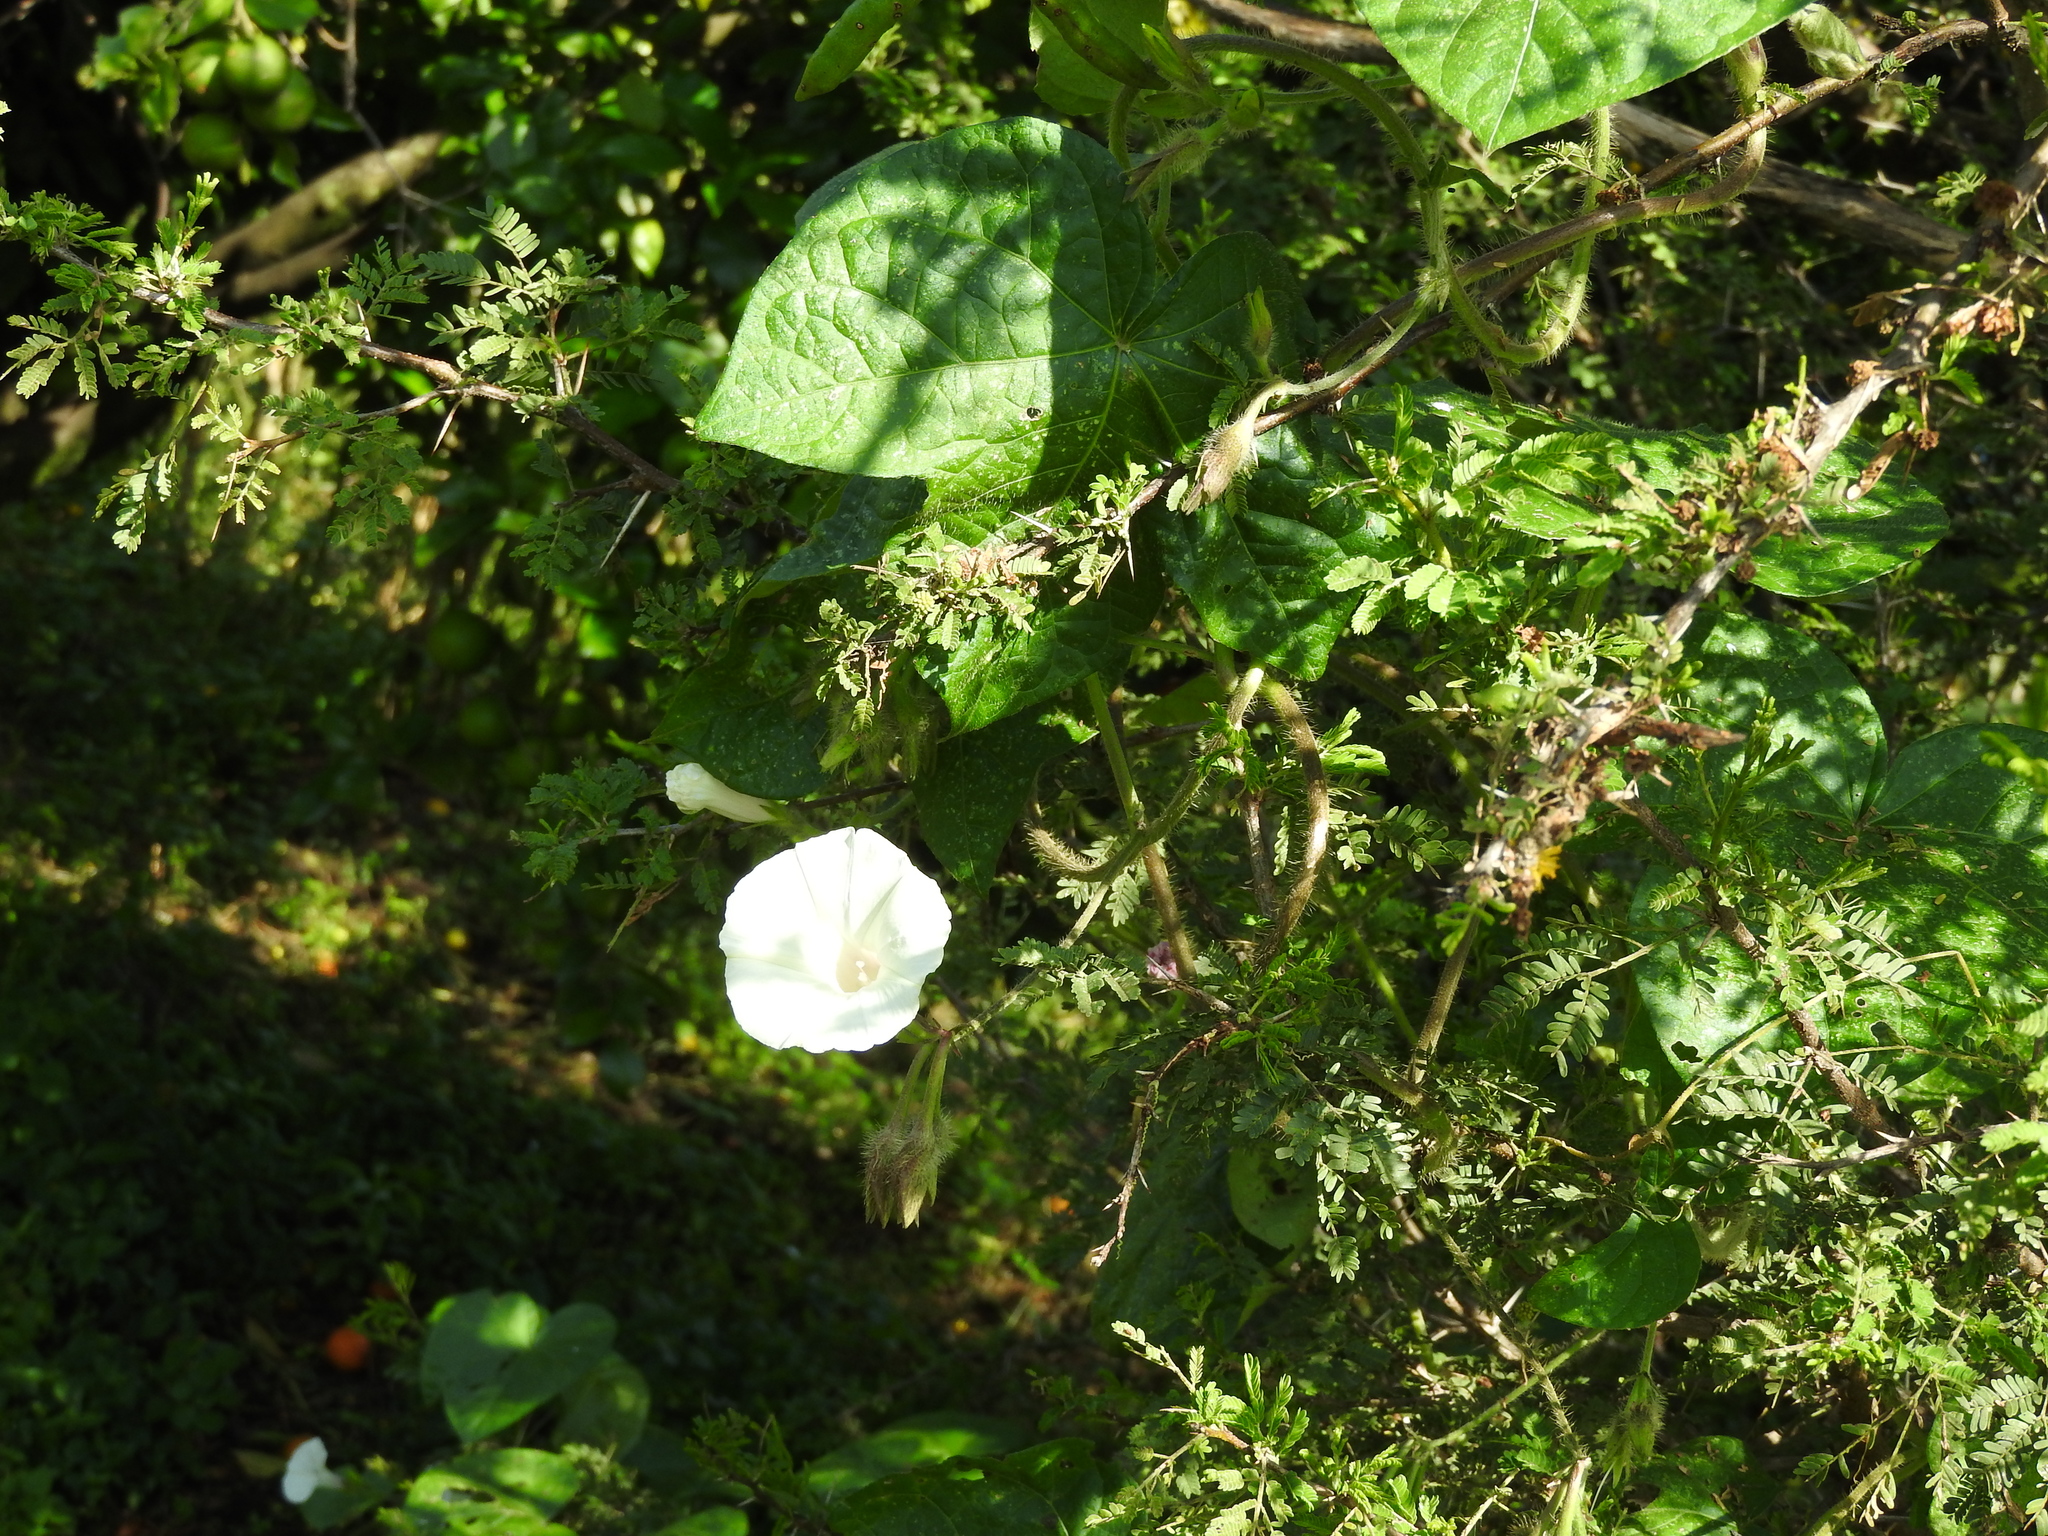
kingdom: Plantae
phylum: Tracheophyta
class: Magnoliopsida
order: Solanales
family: Convolvulaceae
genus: Ipomoea
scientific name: Ipomoea purpurea
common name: Common morning-glory
